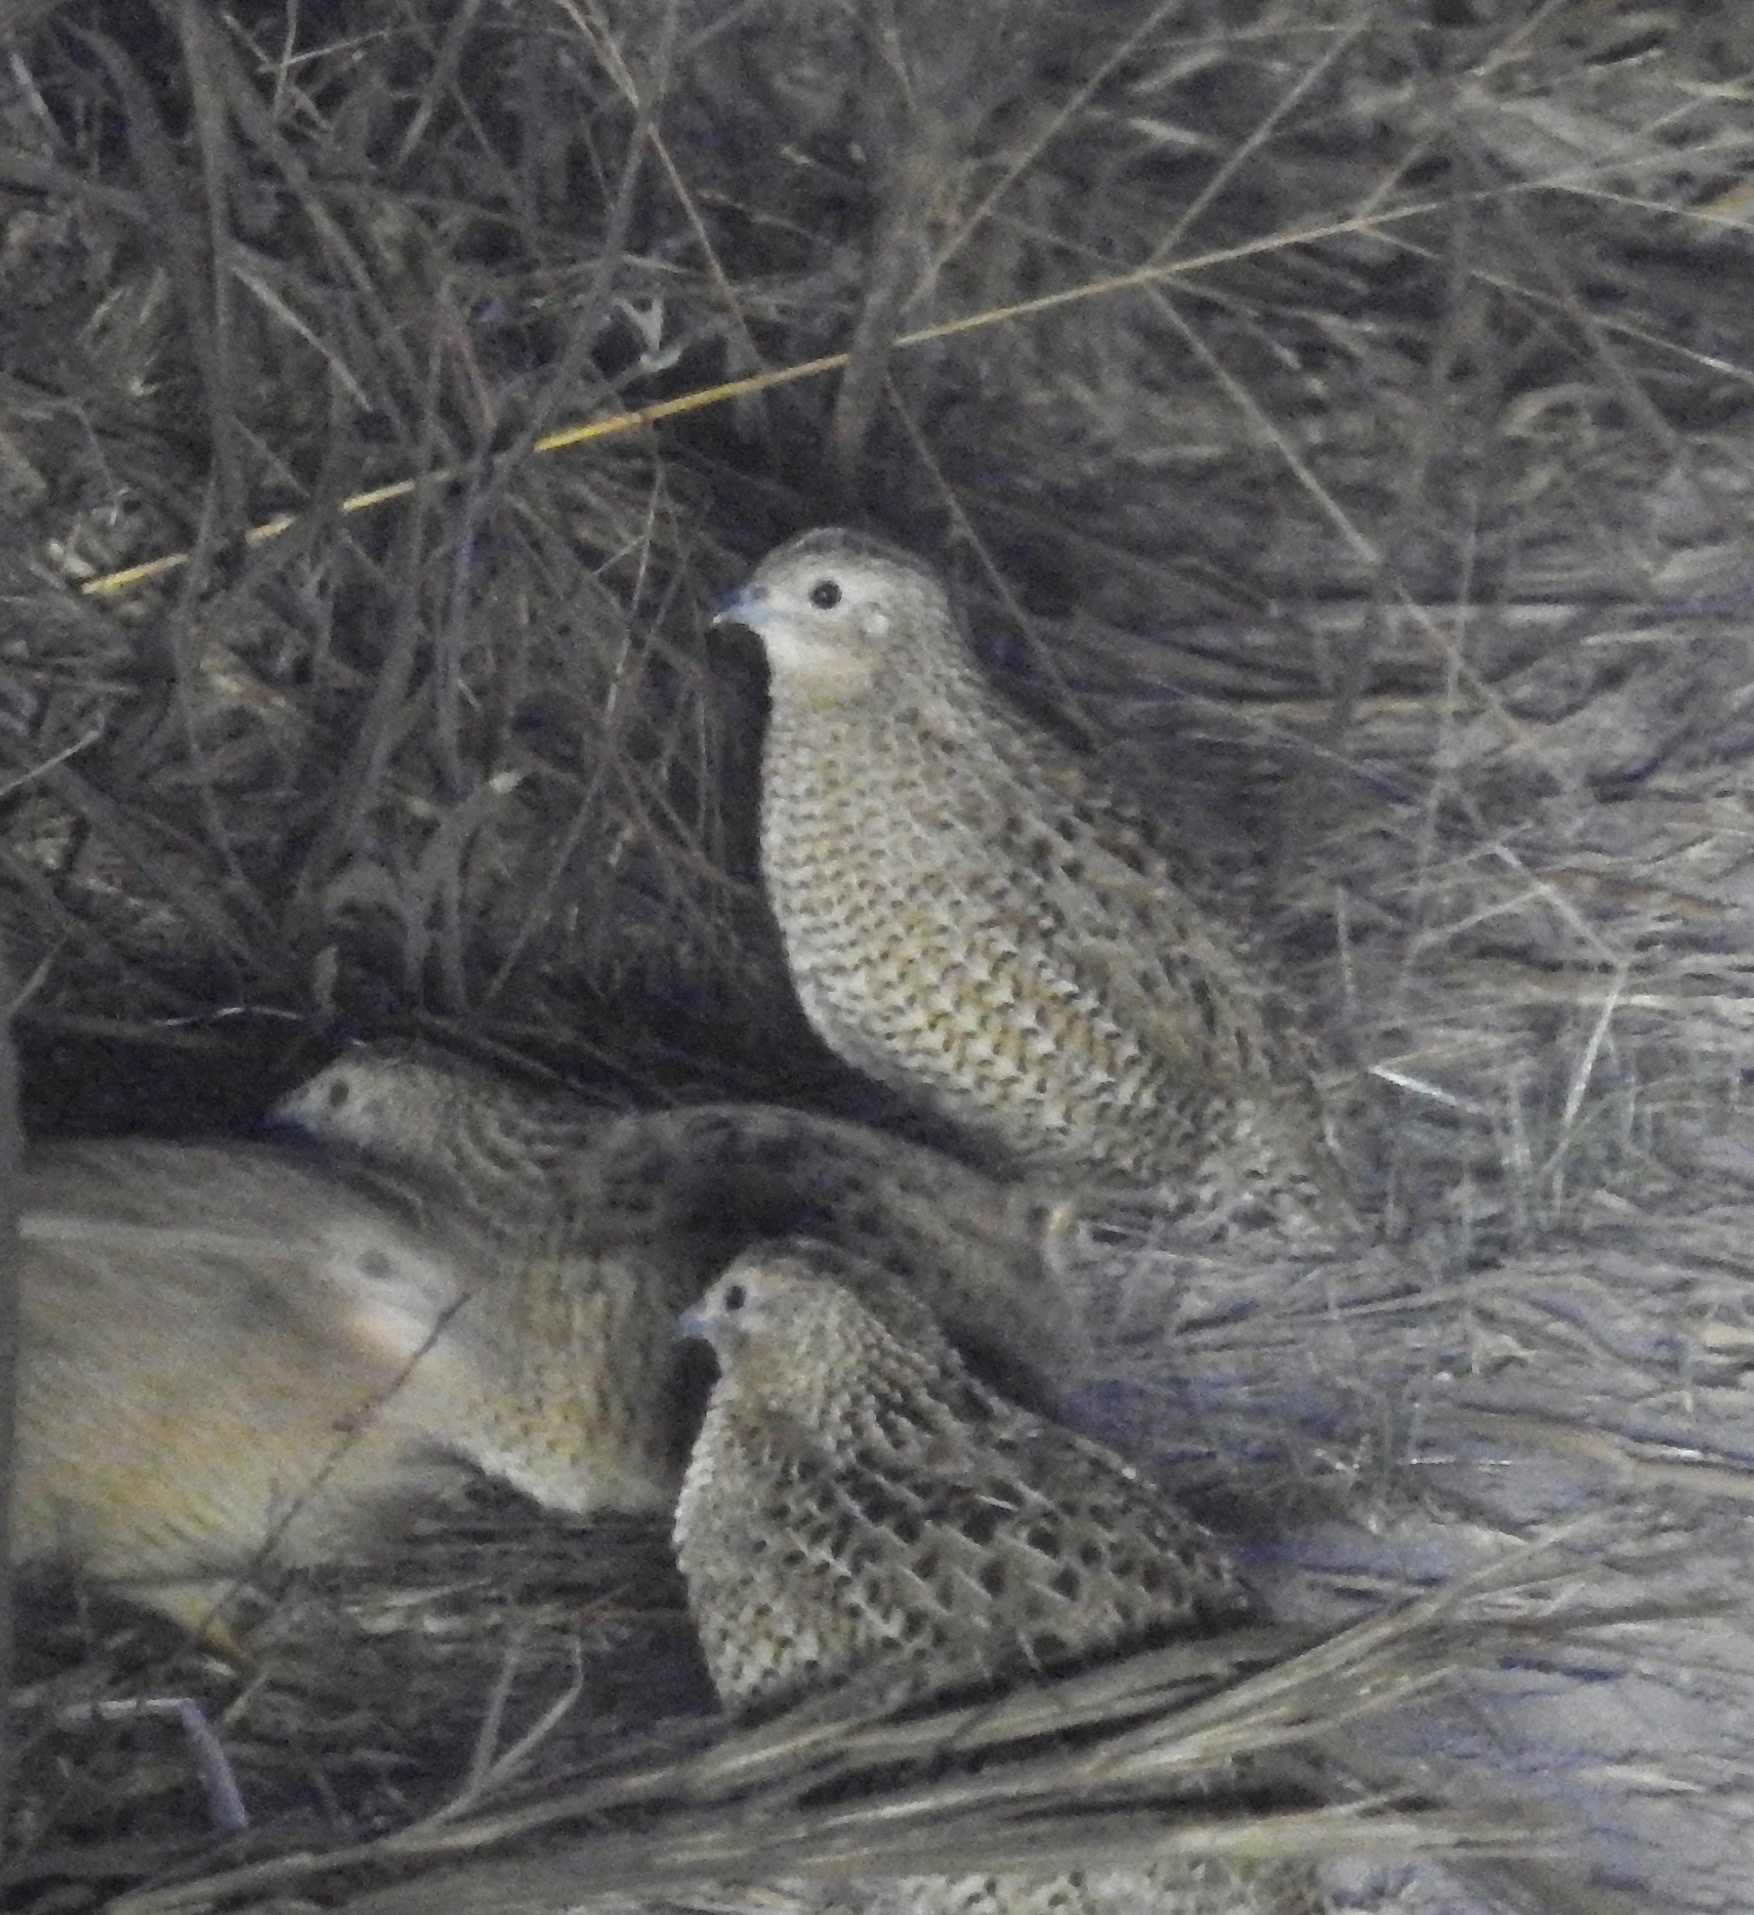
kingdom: Animalia
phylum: Chordata
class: Aves
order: Galliformes
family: Phasianidae
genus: Synoicus
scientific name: Synoicus ypsilophorus
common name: Brown quail
